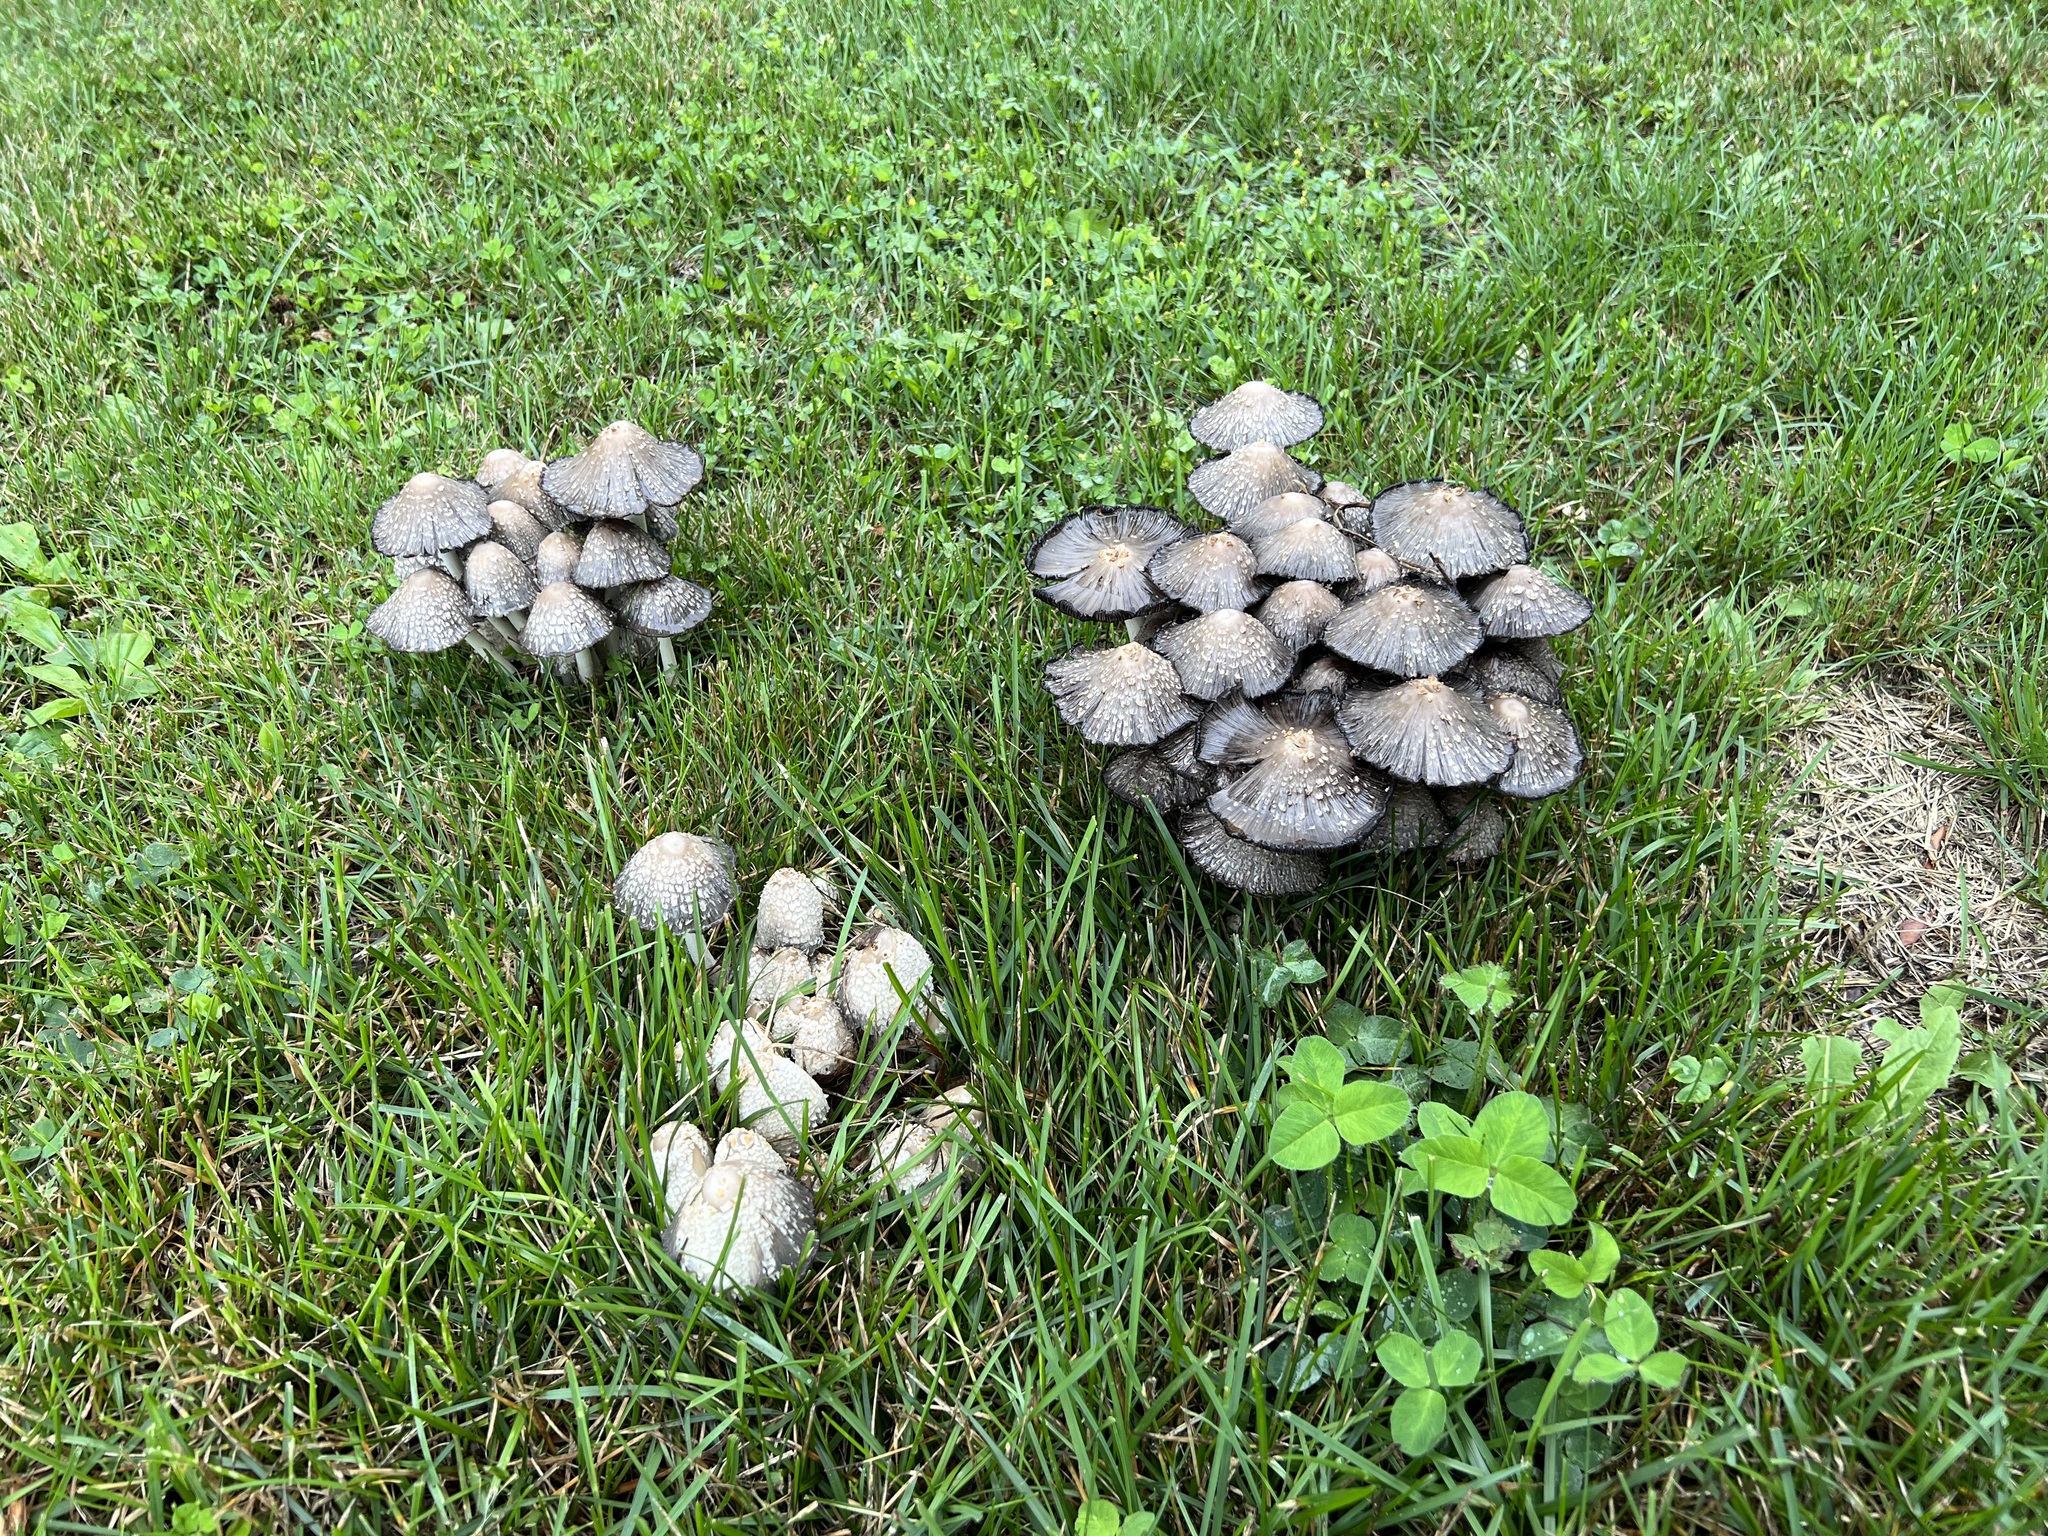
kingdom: Fungi
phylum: Basidiomycota
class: Agaricomycetes
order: Agaricales
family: Psathyrellaceae
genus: Coprinopsis
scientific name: Coprinopsis variegata
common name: Scaly ink cap
